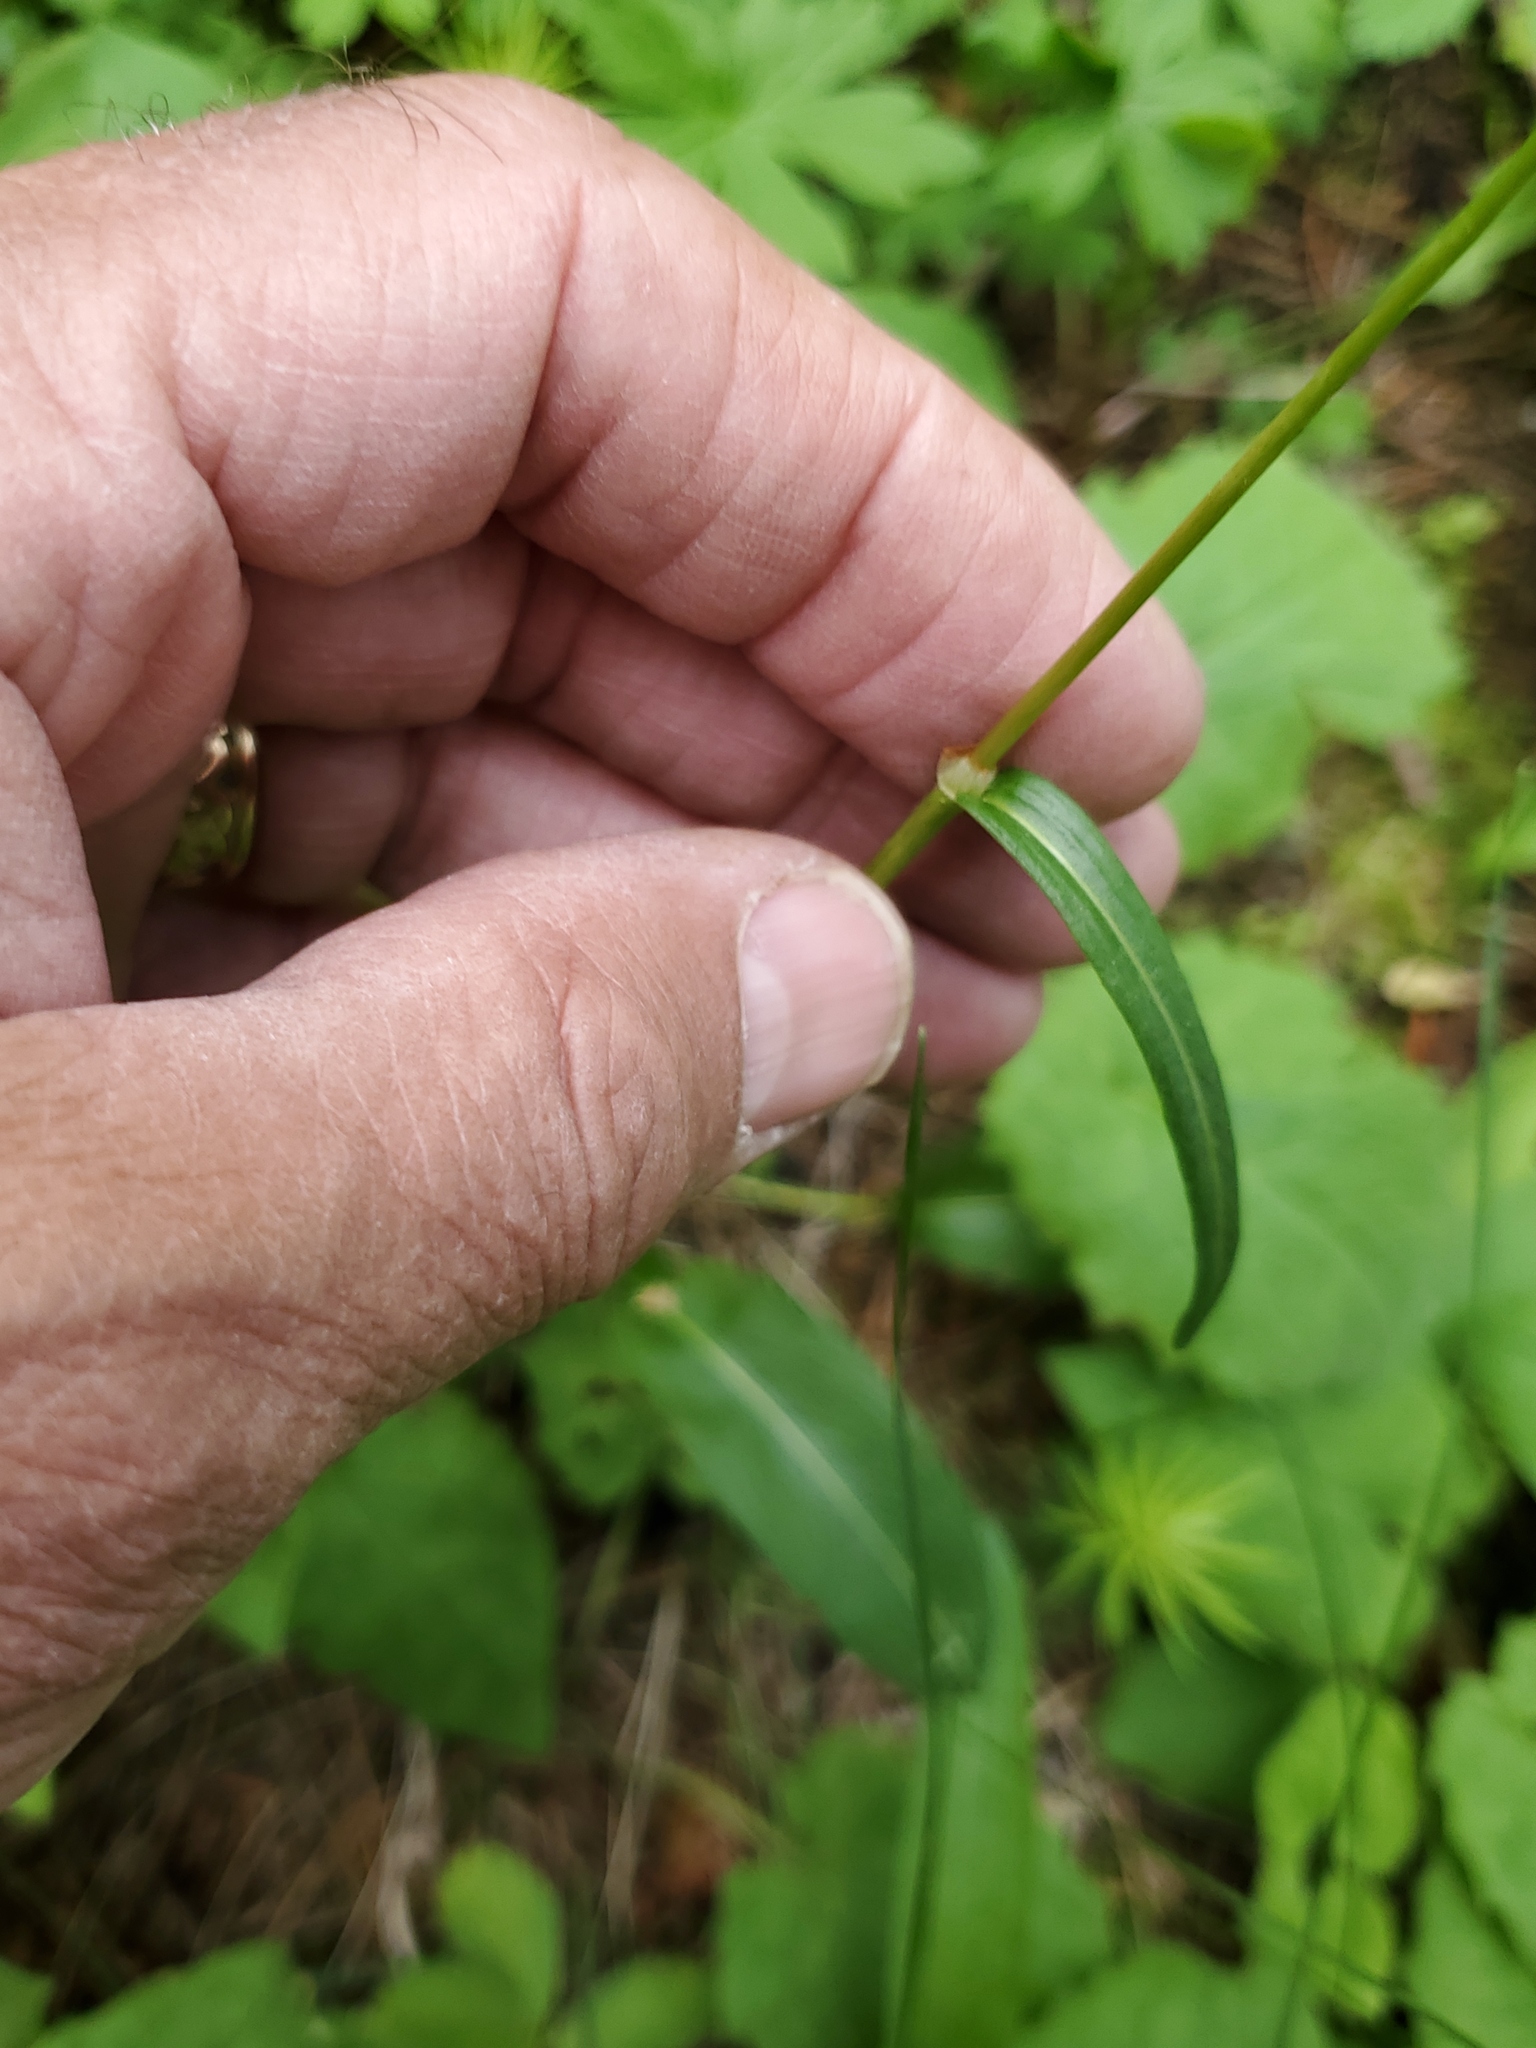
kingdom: Plantae
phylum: Tracheophyta
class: Magnoliopsida
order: Caryophyllales
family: Polygonaceae
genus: Bistorta
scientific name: Bistorta bistortoides
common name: American bistort
